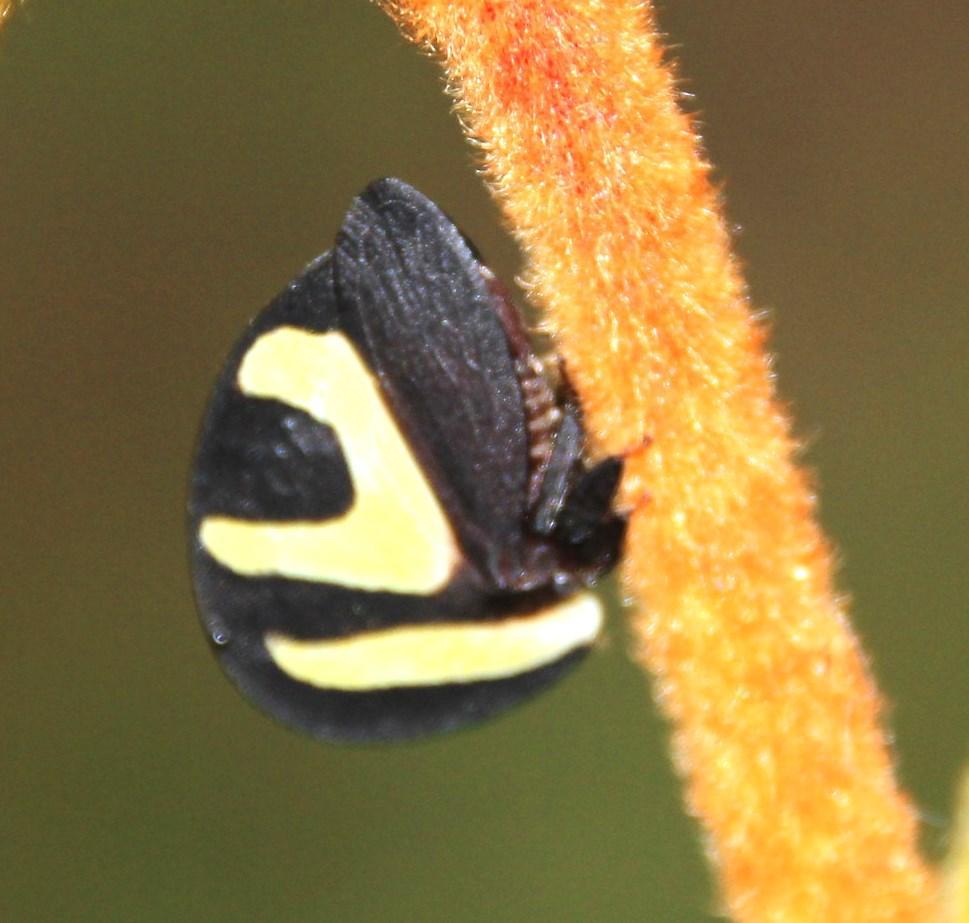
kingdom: Animalia
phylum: Arthropoda
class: Insecta
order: Hemiptera
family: Membracidae
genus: Membracis
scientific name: Membracis foliatafasciata
